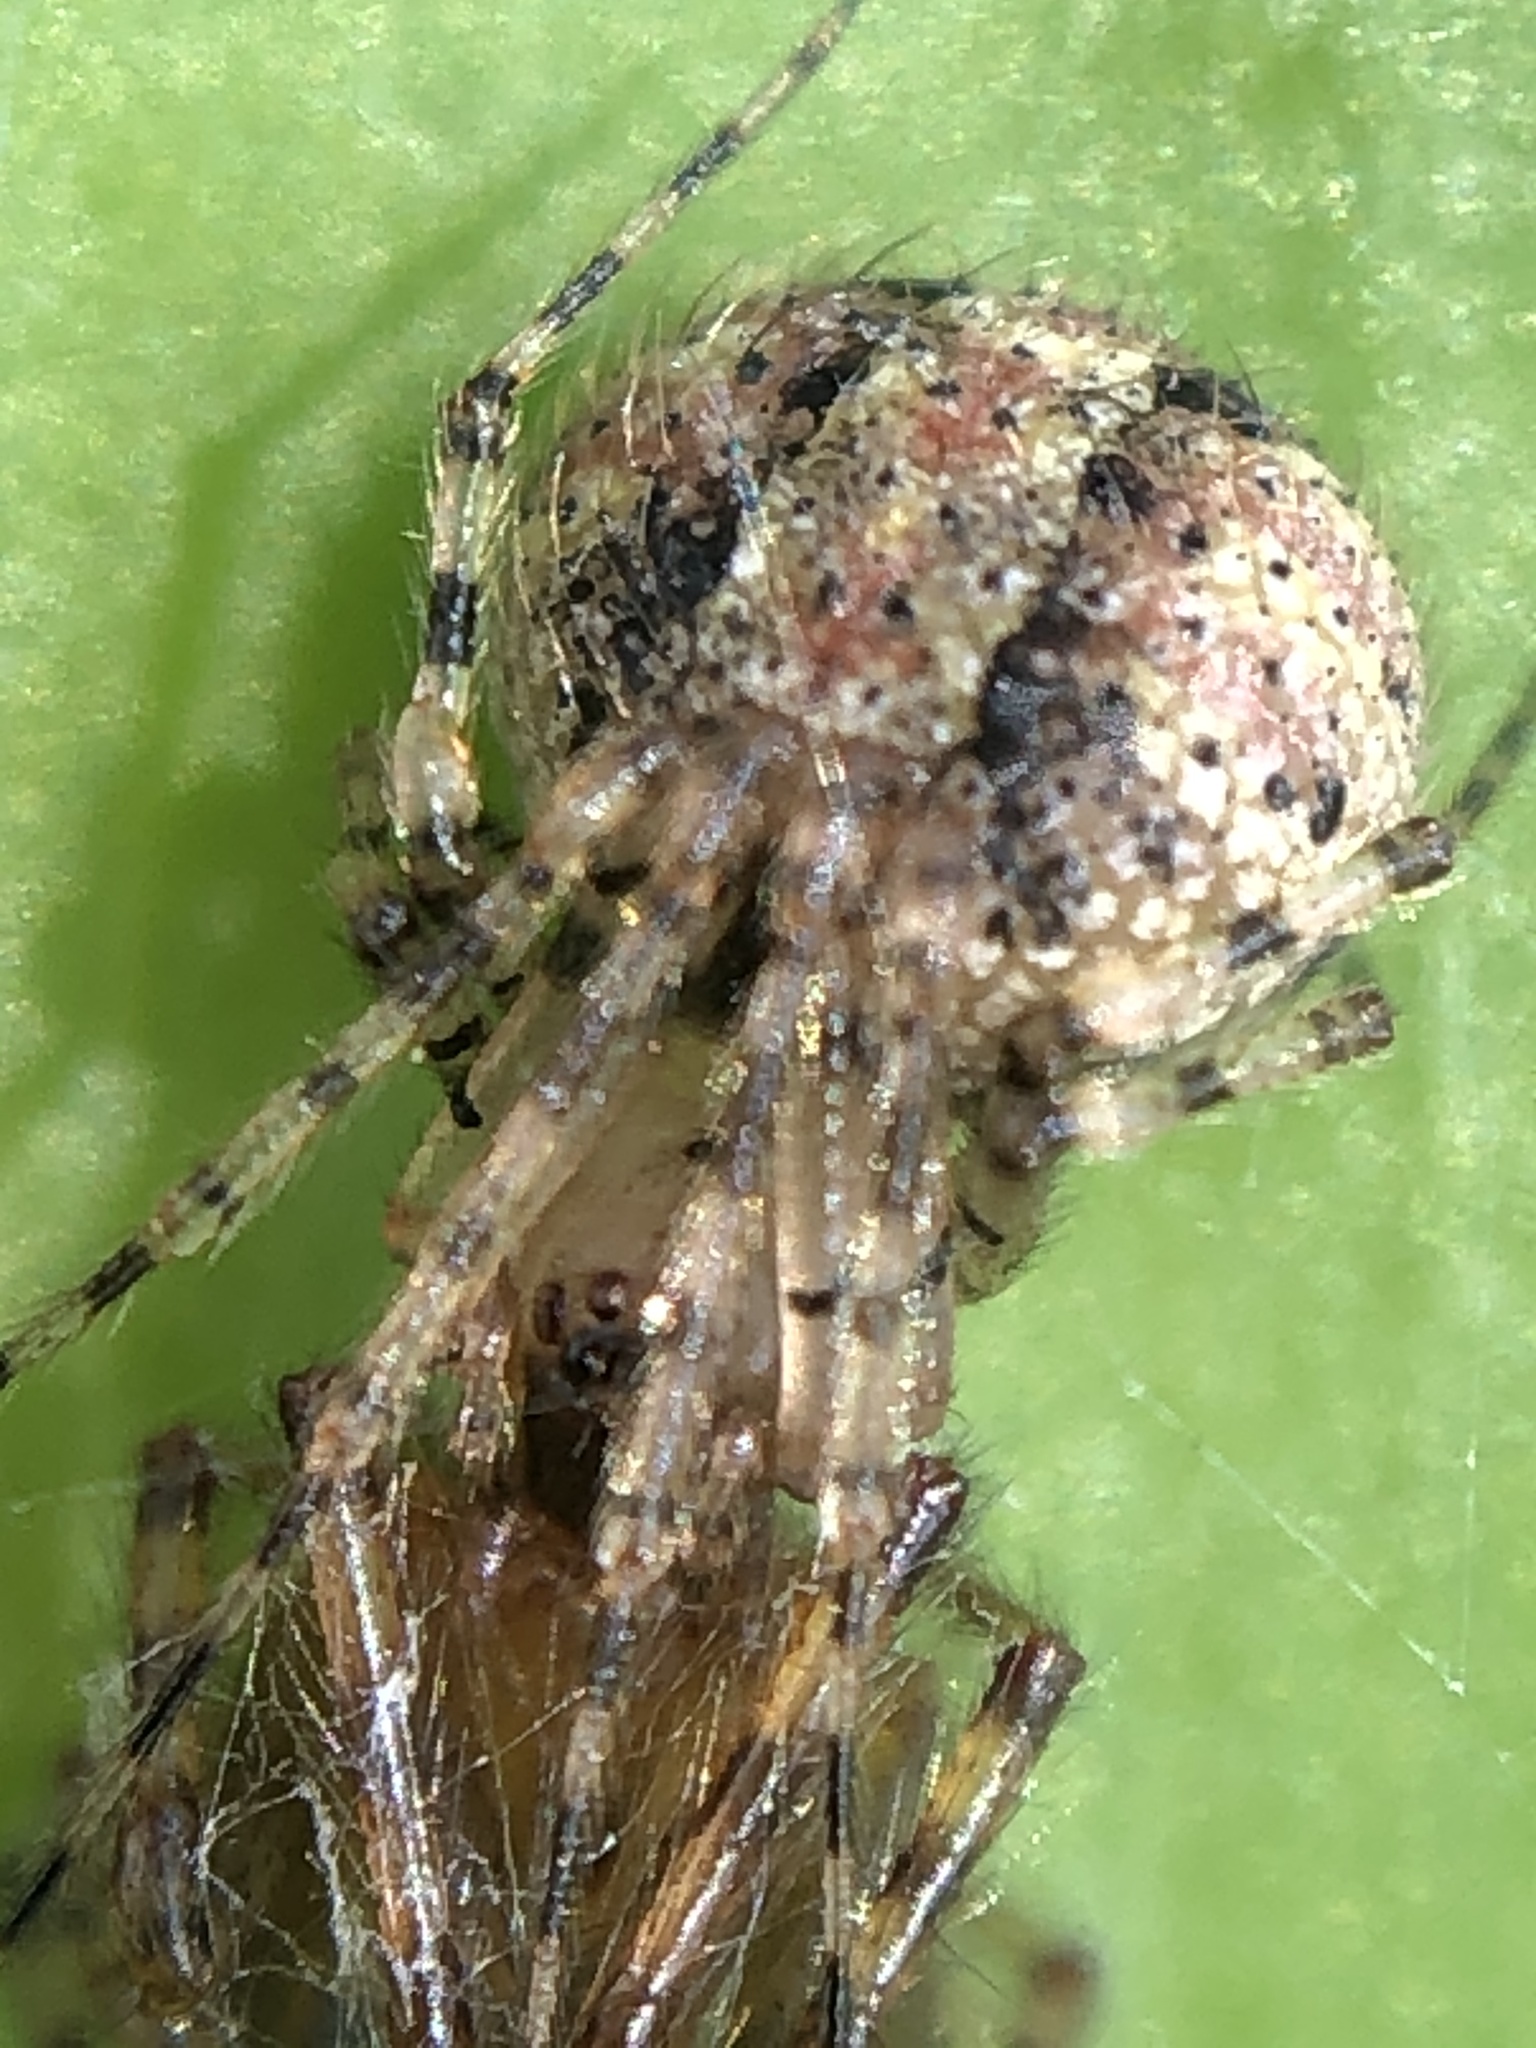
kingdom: Animalia
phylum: Arthropoda
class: Arachnida
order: Araneae
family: Theridiidae
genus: Platnickina
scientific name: Platnickina mneon
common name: Theridiid spidereater
